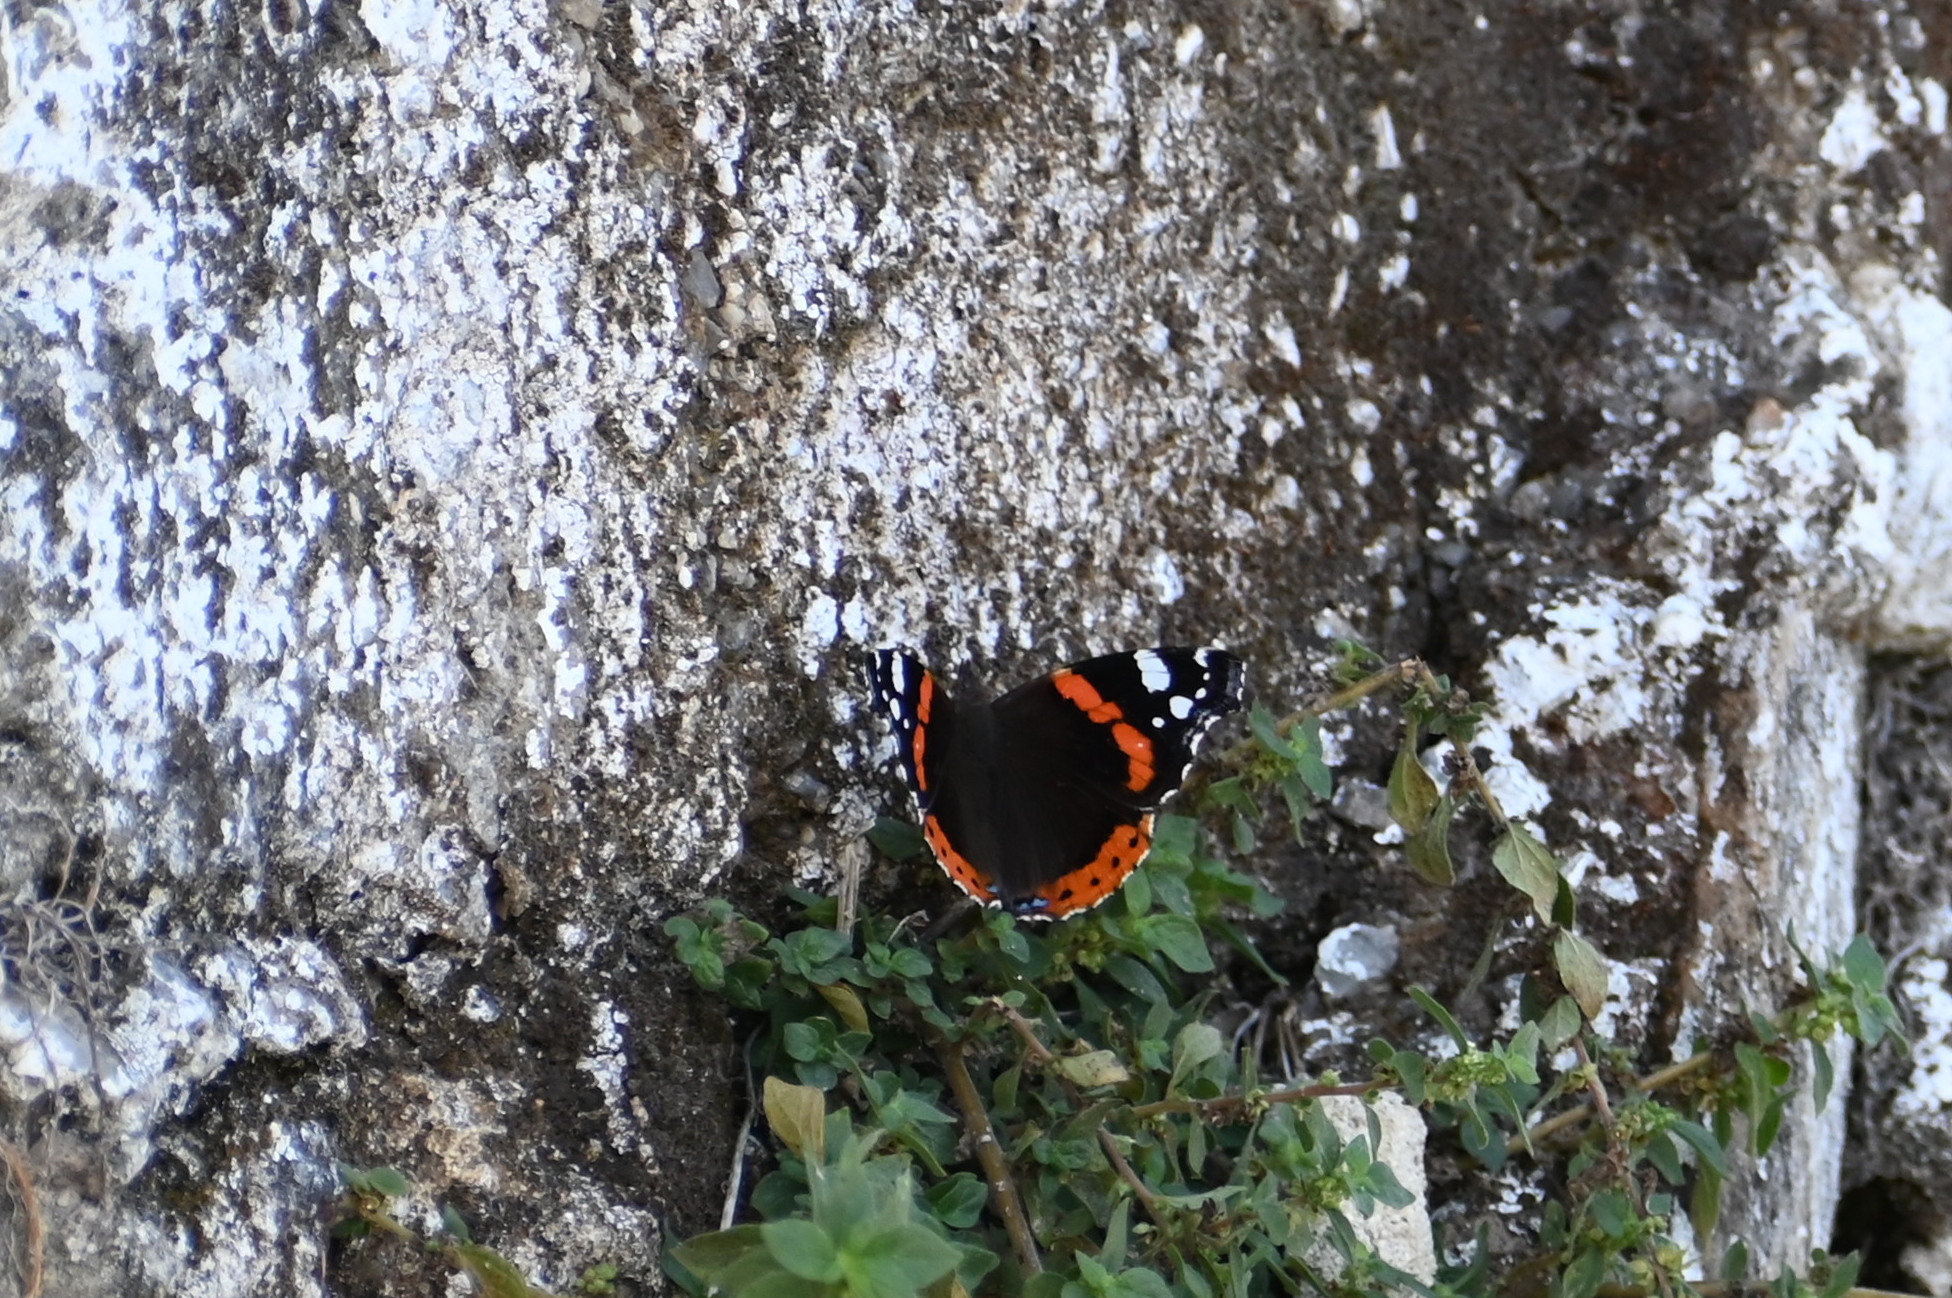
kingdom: Animalia
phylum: Arthropoda
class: Insecta
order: Lepidoptera
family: Nymphalidae
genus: Vanessa
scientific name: Vanessa atalanta
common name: Red admiral
